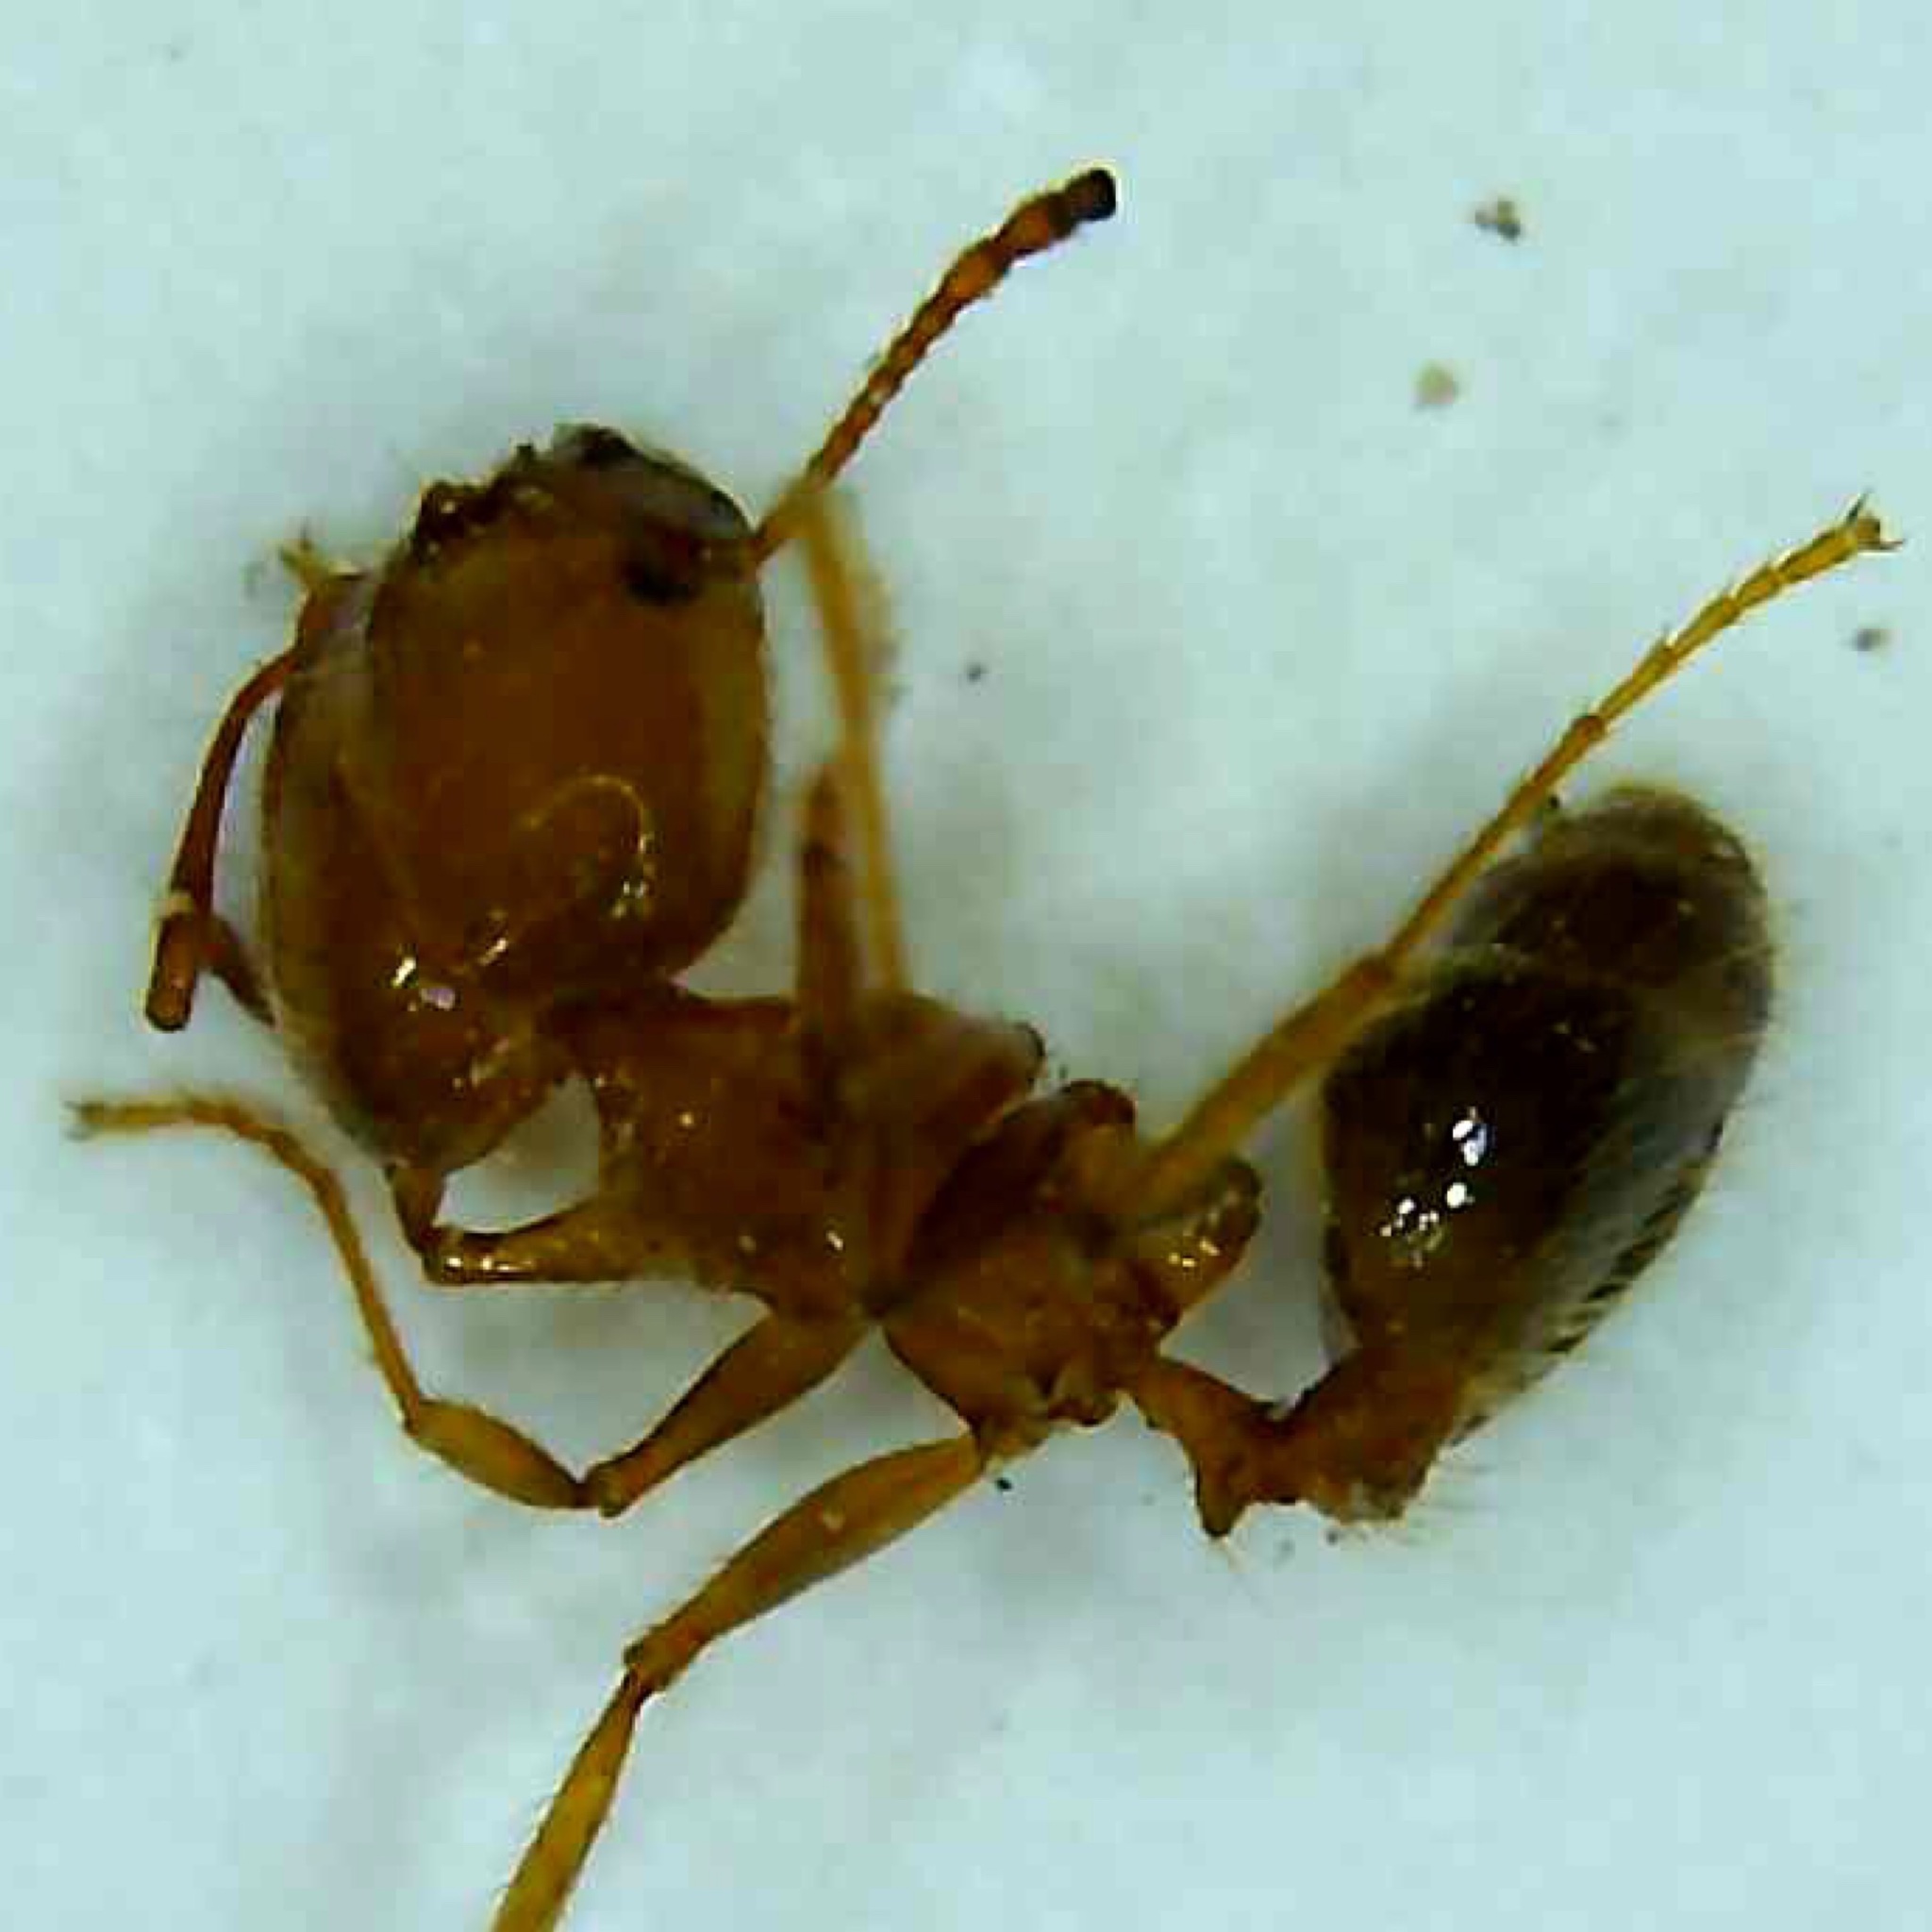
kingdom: Animalia
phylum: Arthropoda
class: Insecta
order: Hymenoptera
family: Formicidae
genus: Pheidole
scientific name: Pheidole dentata
